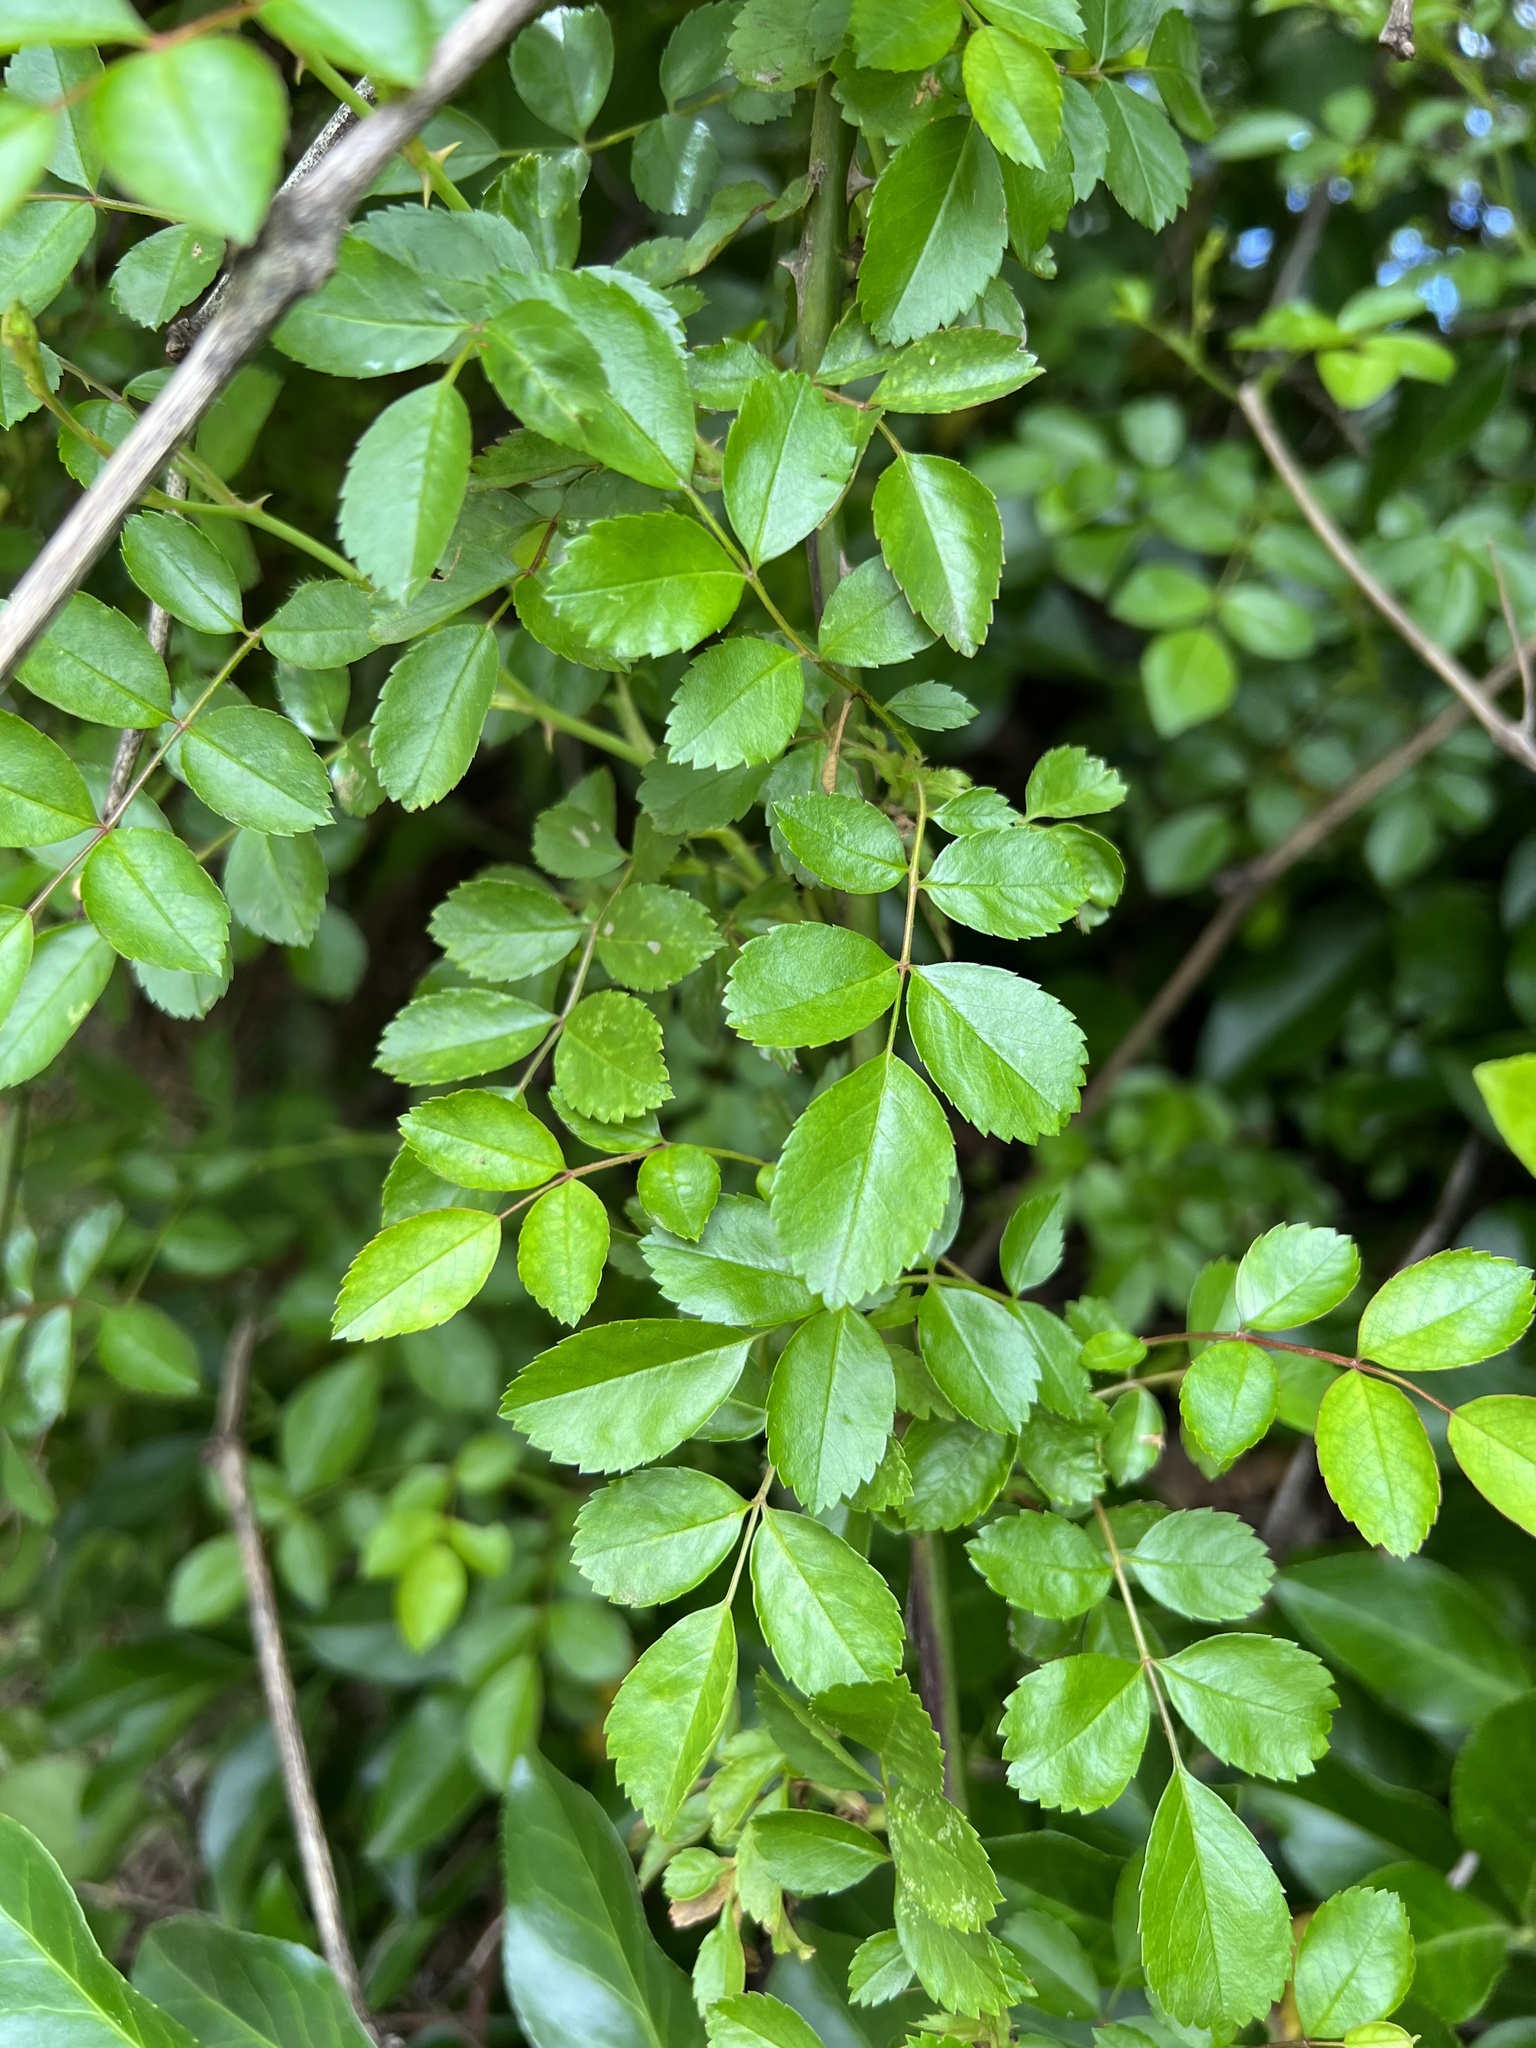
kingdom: Plantae
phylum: Tracheophyta
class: Magnoliopsida
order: Rosales
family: Rosaceae
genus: Rosa
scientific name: Rosa multiflora
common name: Multiflora rose
